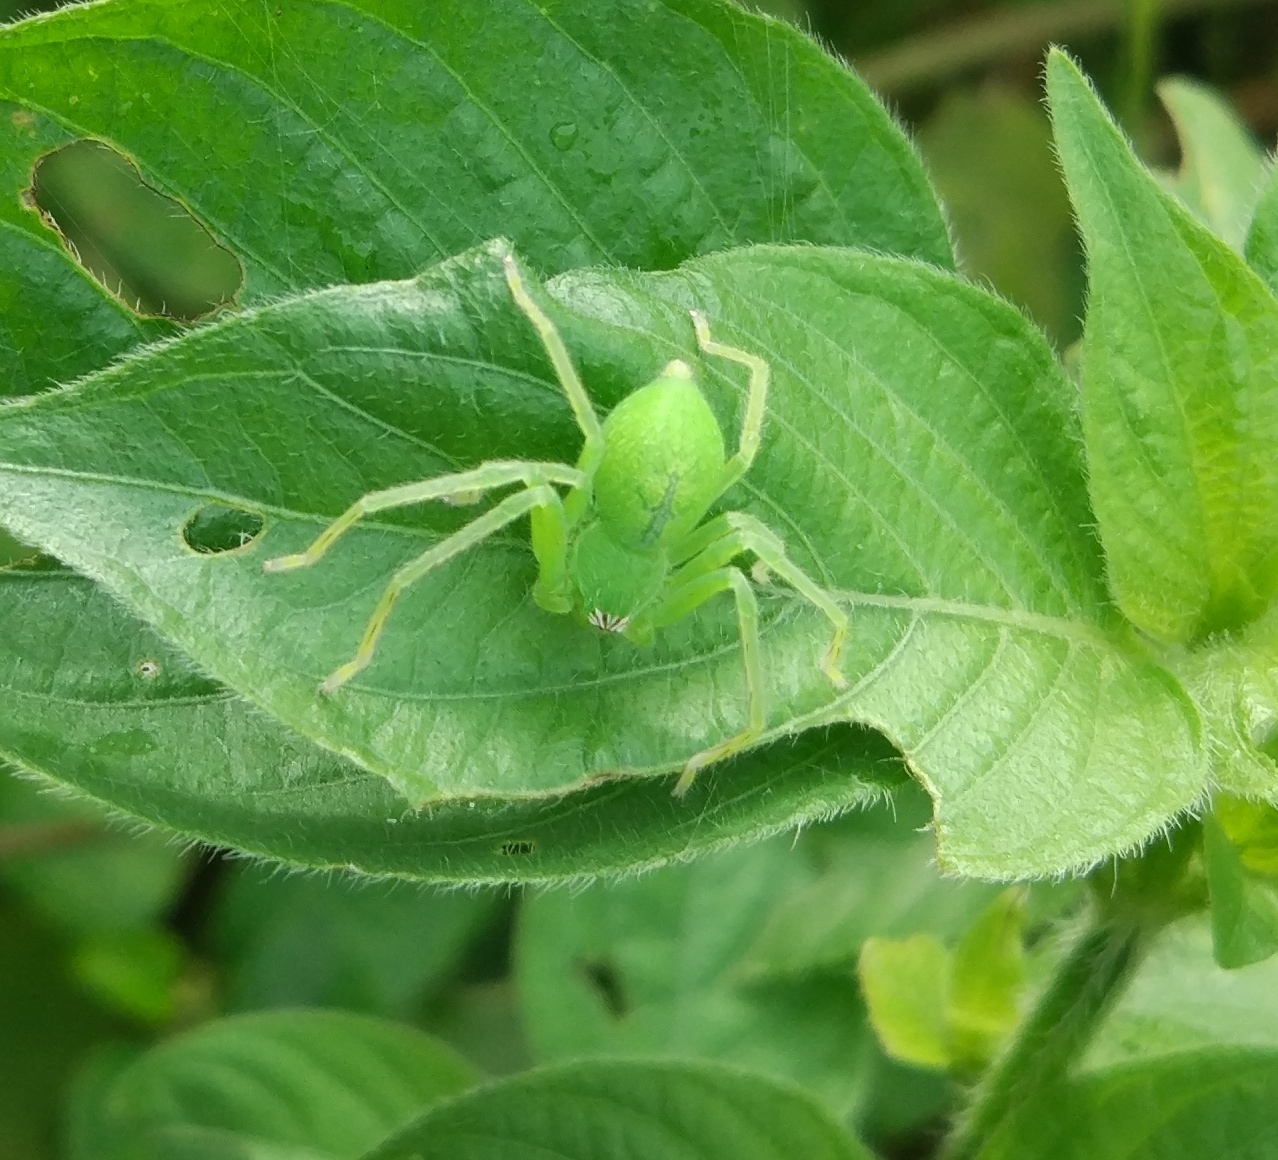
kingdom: Animalia
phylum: Arthropoda
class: Arachnida
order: Araneae
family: Sparassidae
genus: Olios
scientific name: Olios milleti
